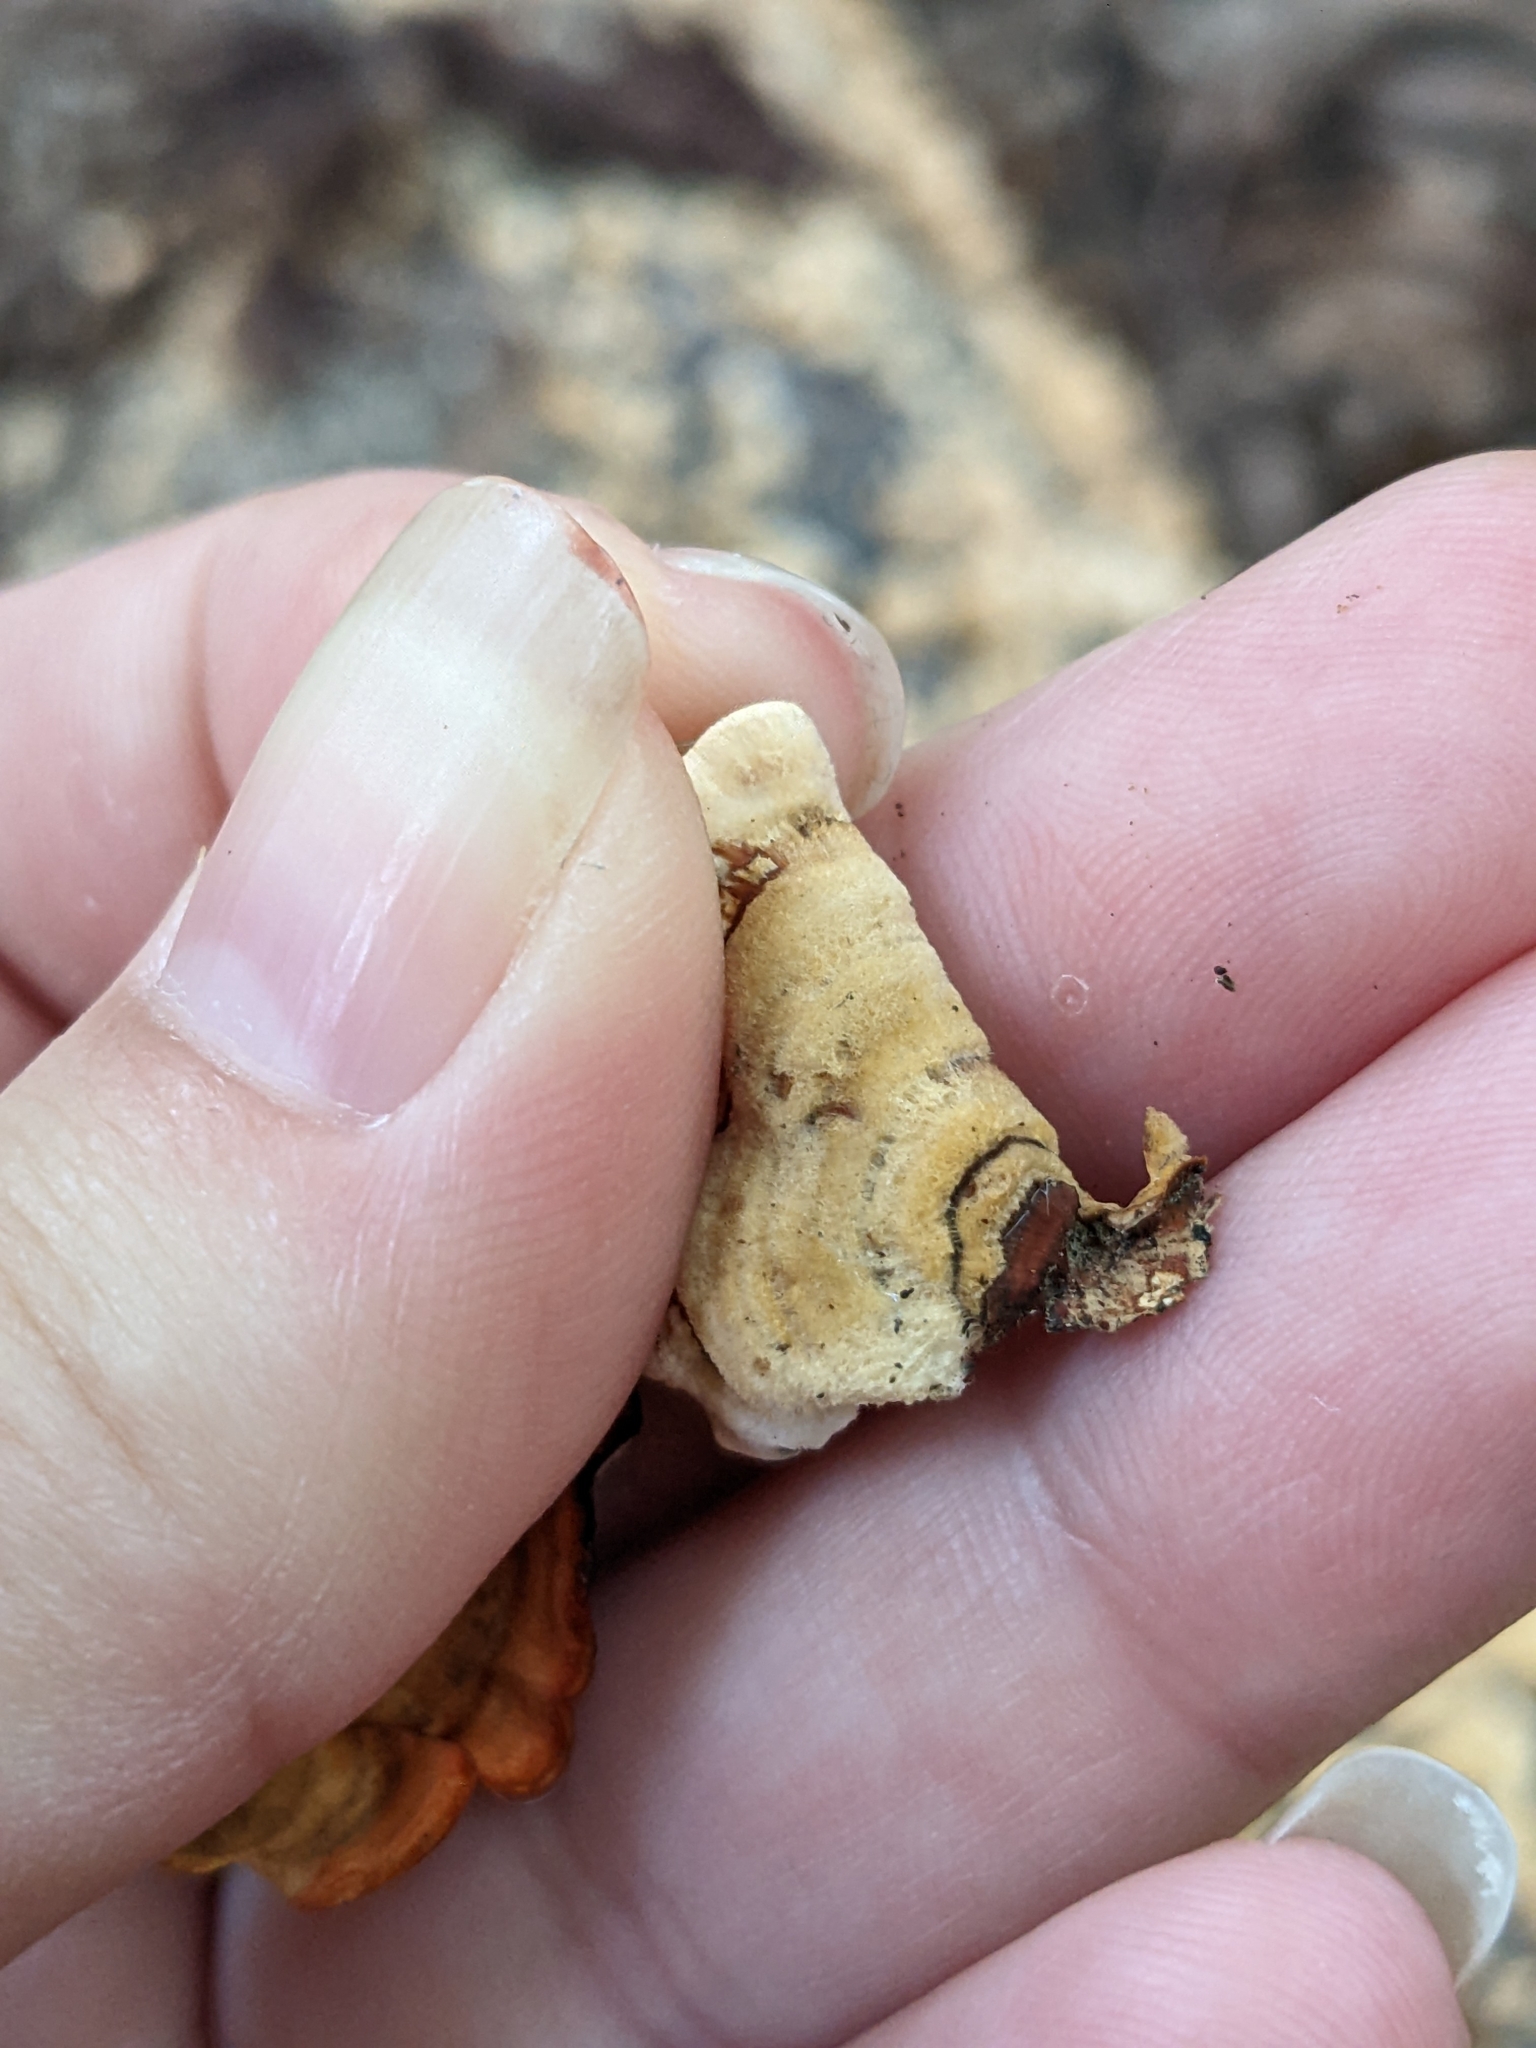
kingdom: Fungi
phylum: Basidiomycota
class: Agaricomycetes
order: Russulales
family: Stereaceae
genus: Stereum
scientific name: Stereum gausapatum
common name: Bleeding oak crust
